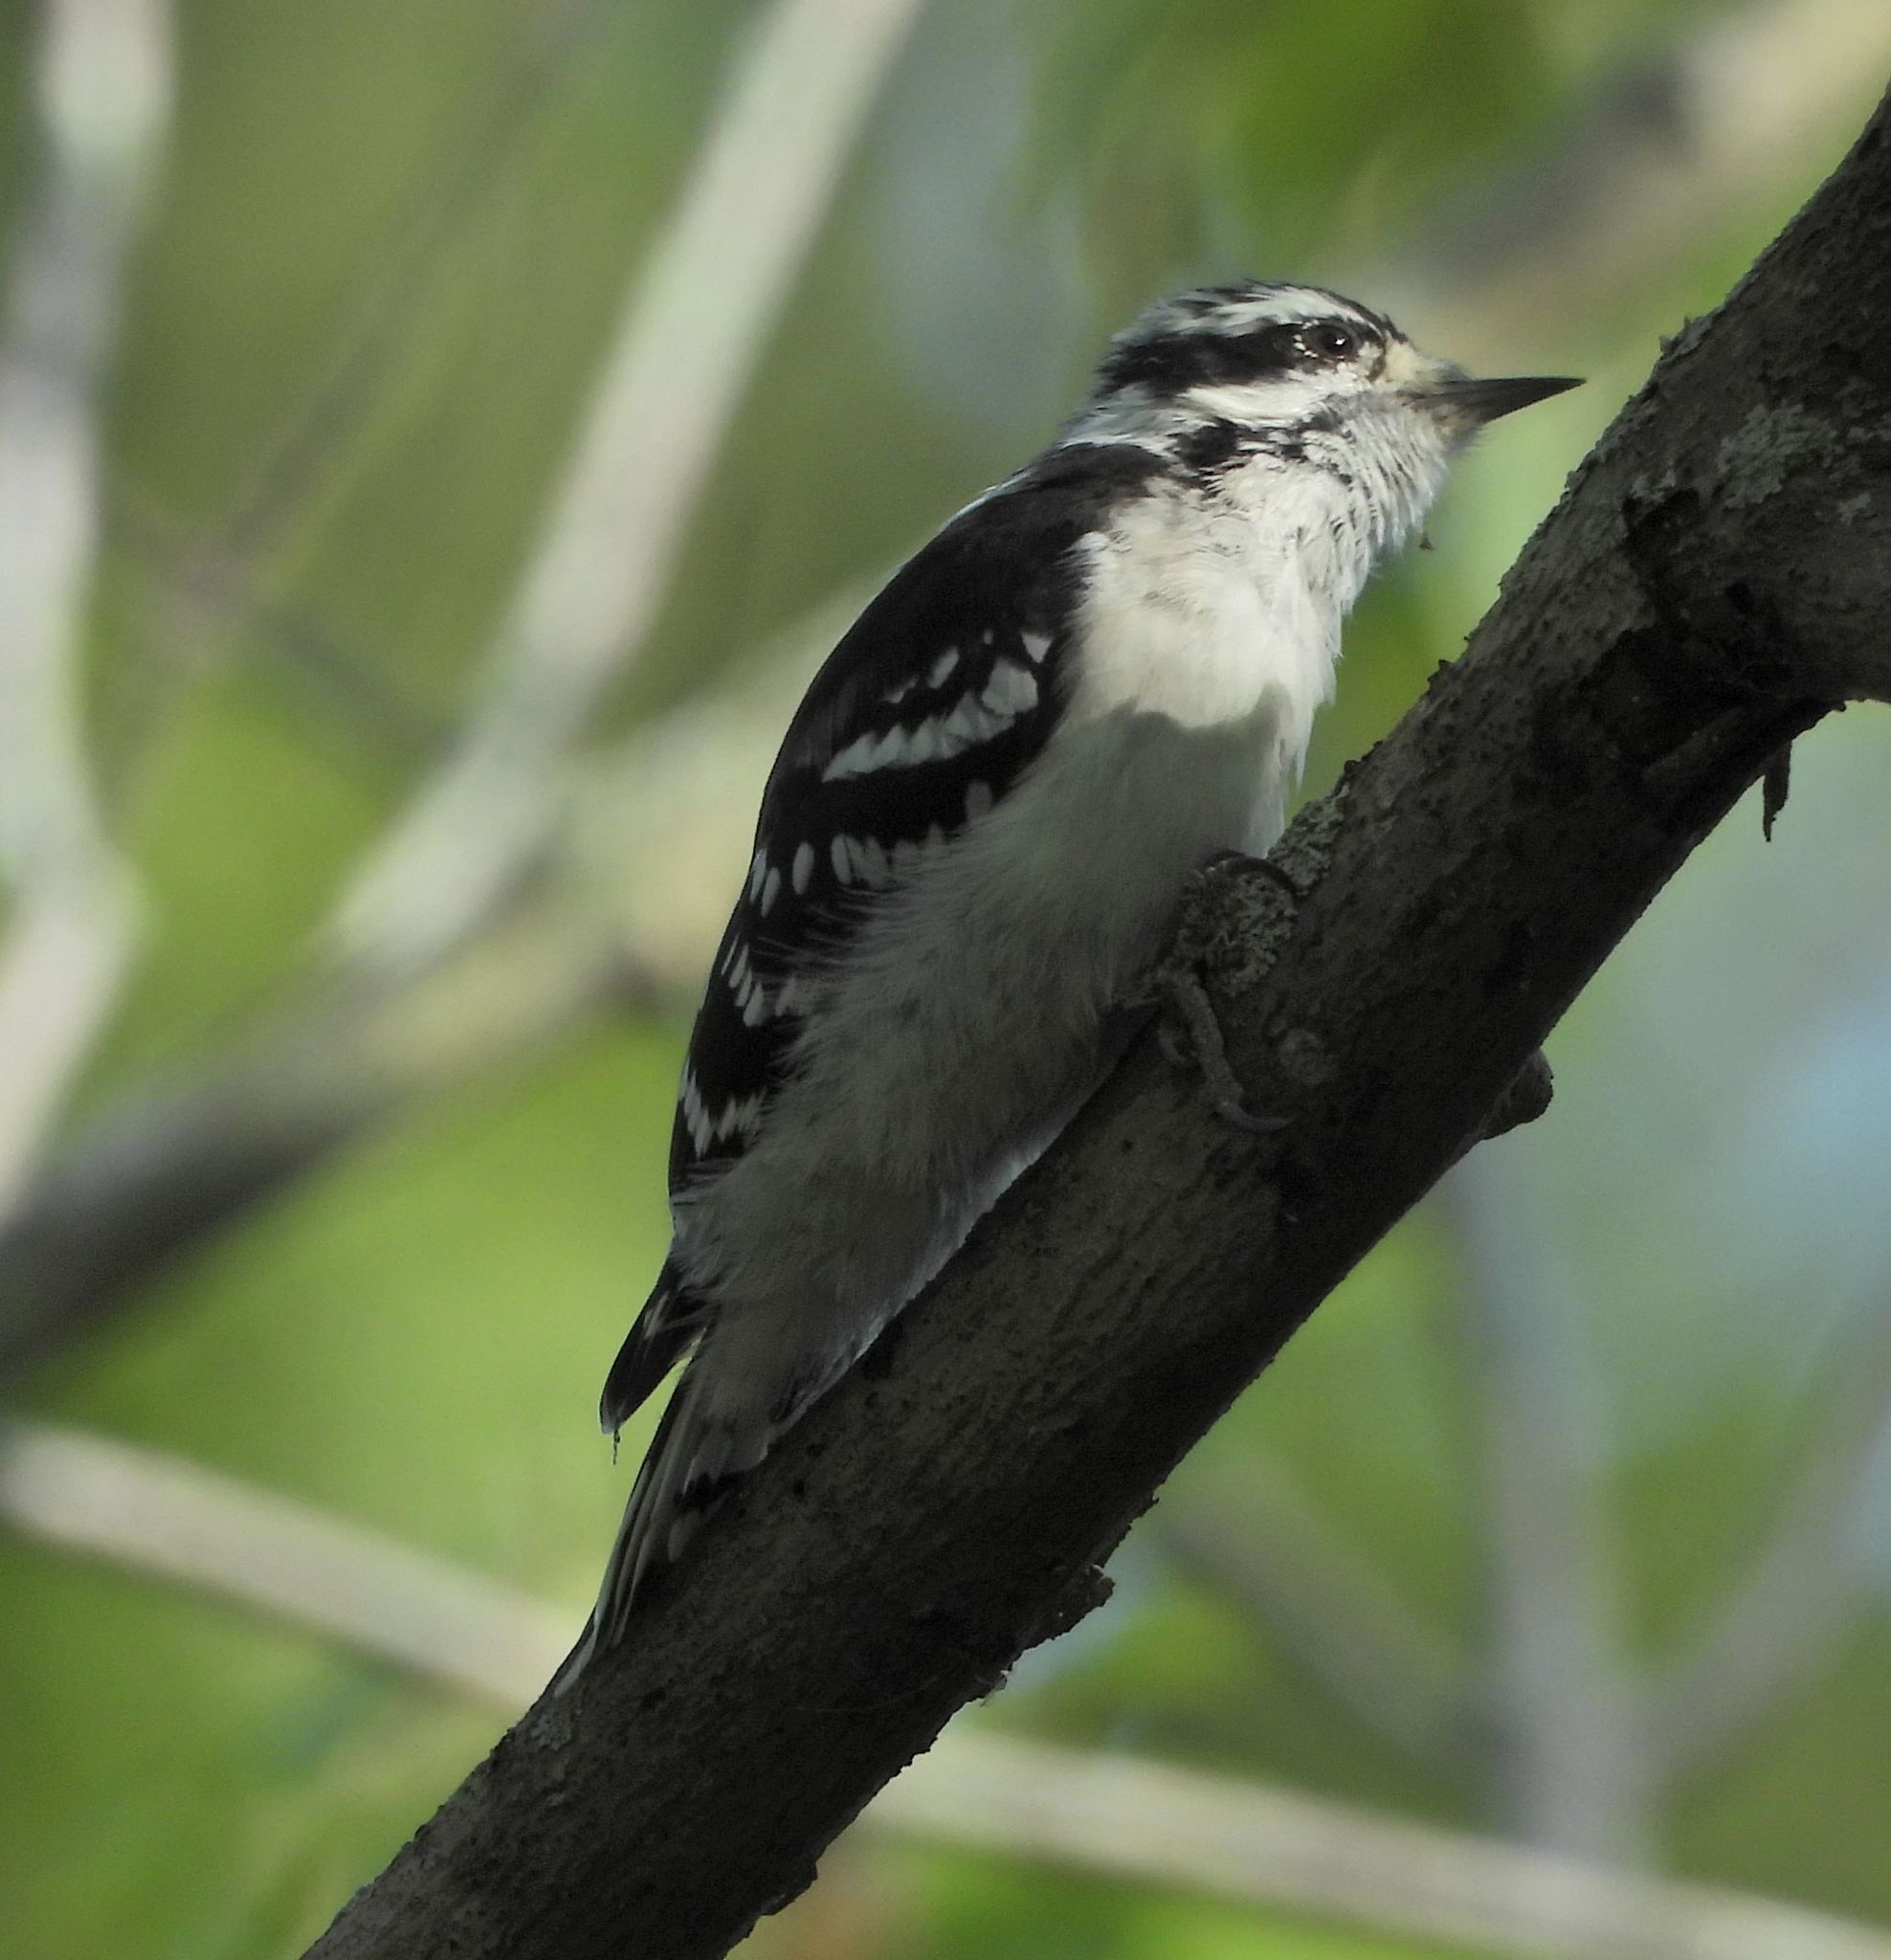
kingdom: Animalia
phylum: Chordata
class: Aves
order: Piciformes
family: Picidae
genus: Dryobates
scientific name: Dryobates pubescens
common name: Downy woodpecker
